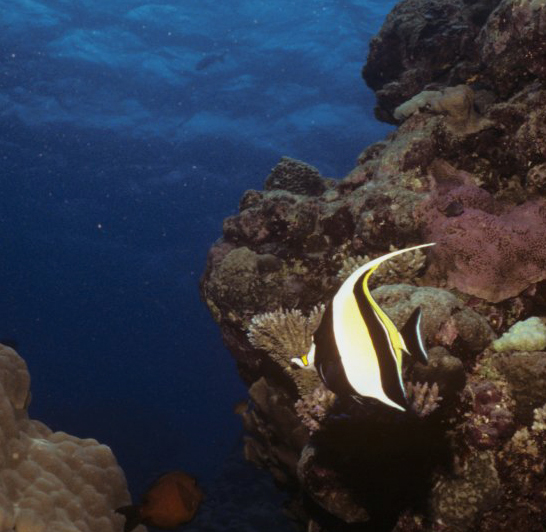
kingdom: Animalia
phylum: Chordata
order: Perciformes
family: Zanclidae
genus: Zanclus
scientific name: Zanclus cornutus
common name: Moorish idol
